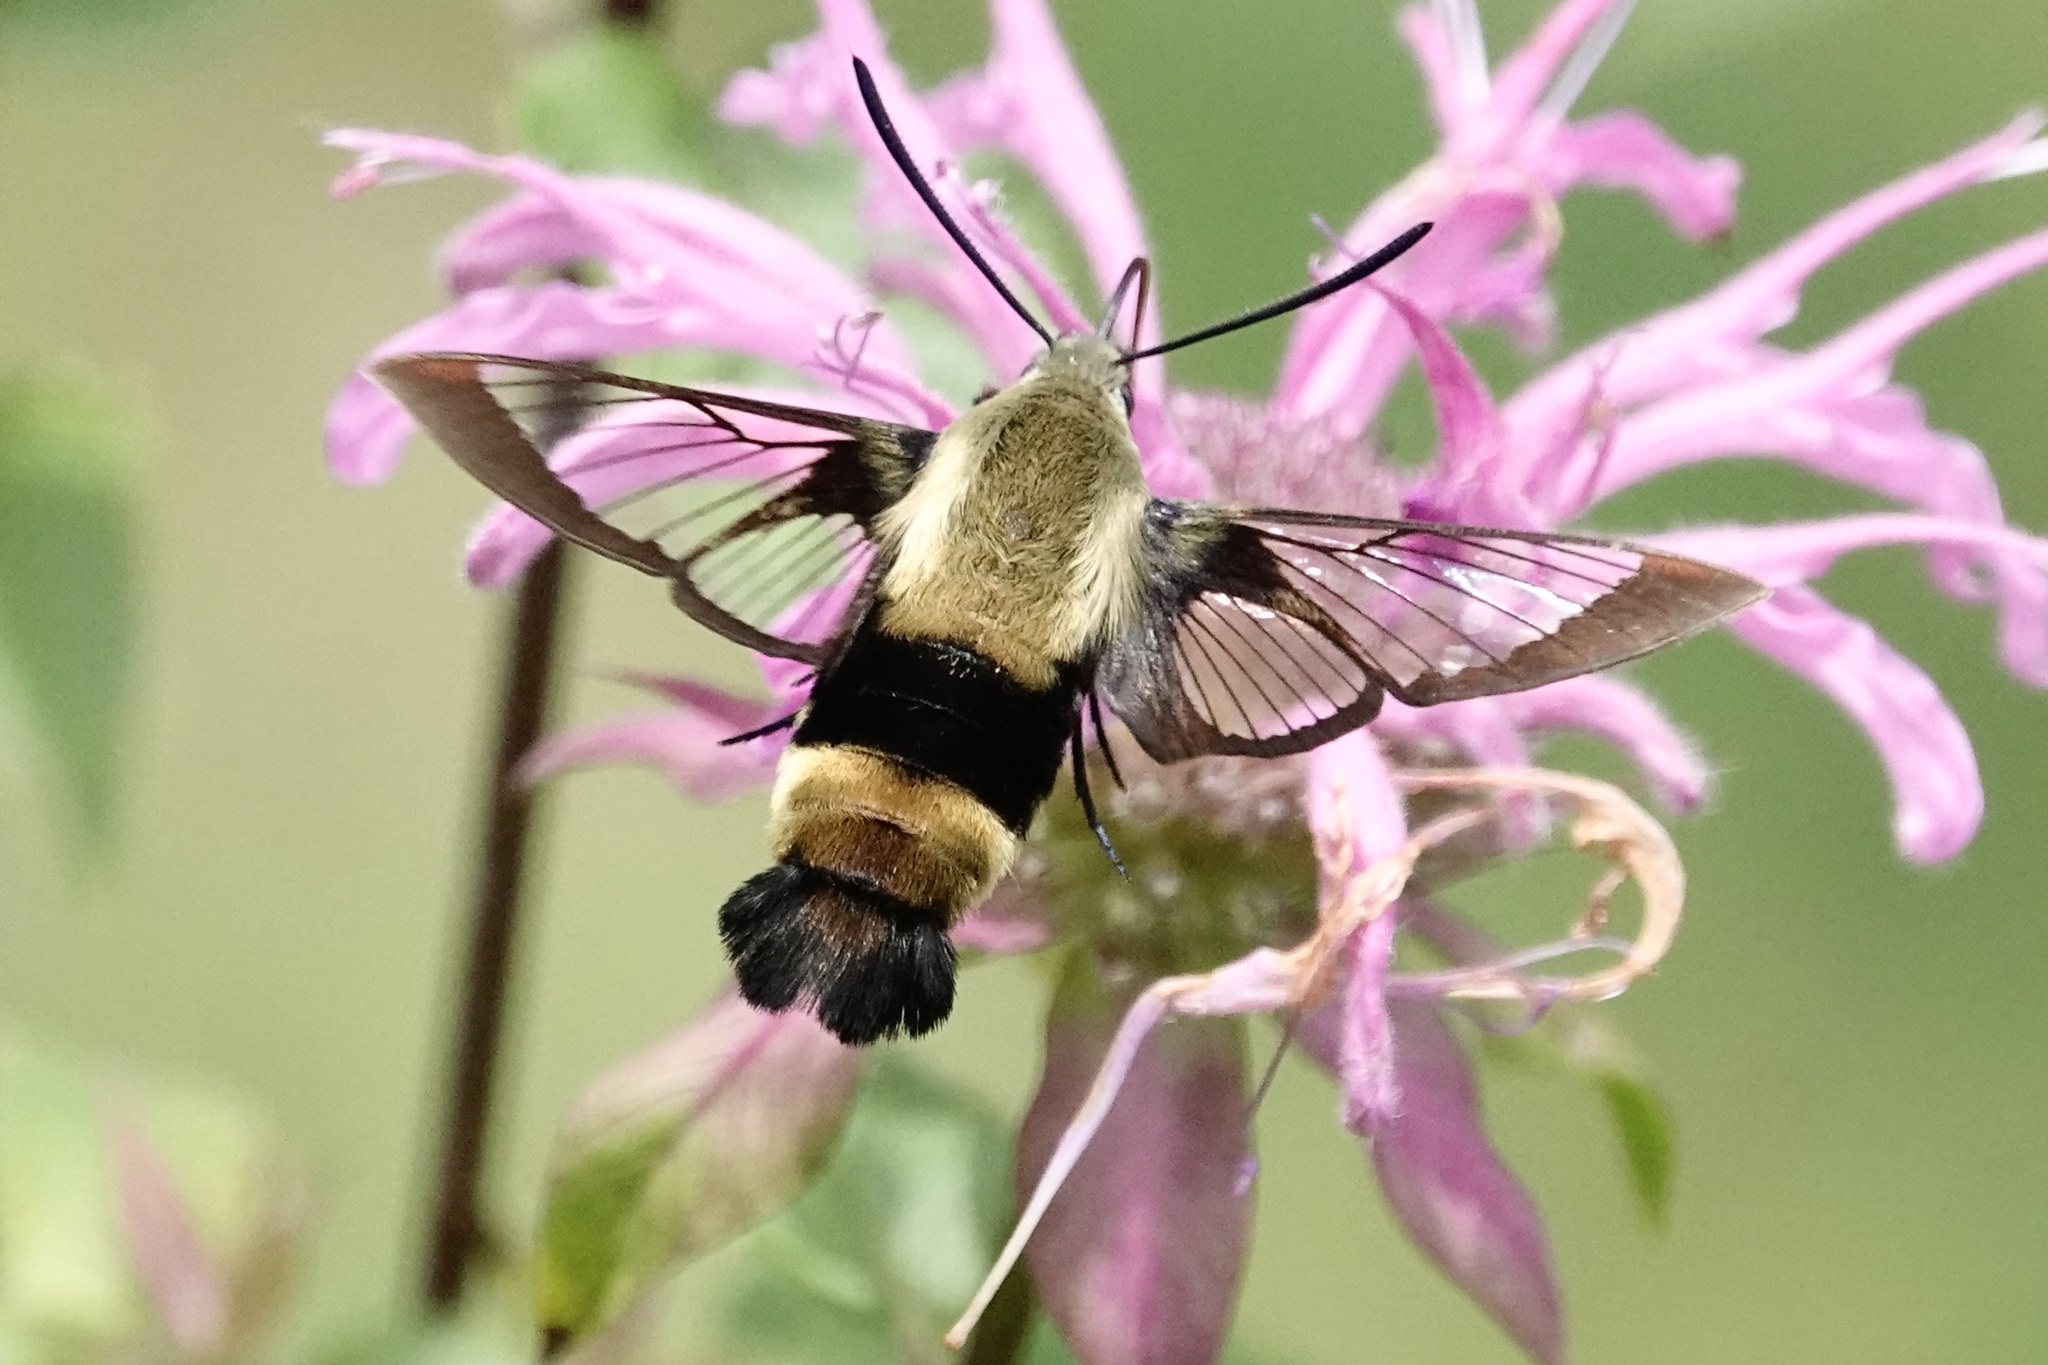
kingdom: Animalia
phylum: Arthropoda
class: Insecta
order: Lepidoptera
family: Sphingidae
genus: Hemaris
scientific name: Hemaris thysbe
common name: Common clear-wing
